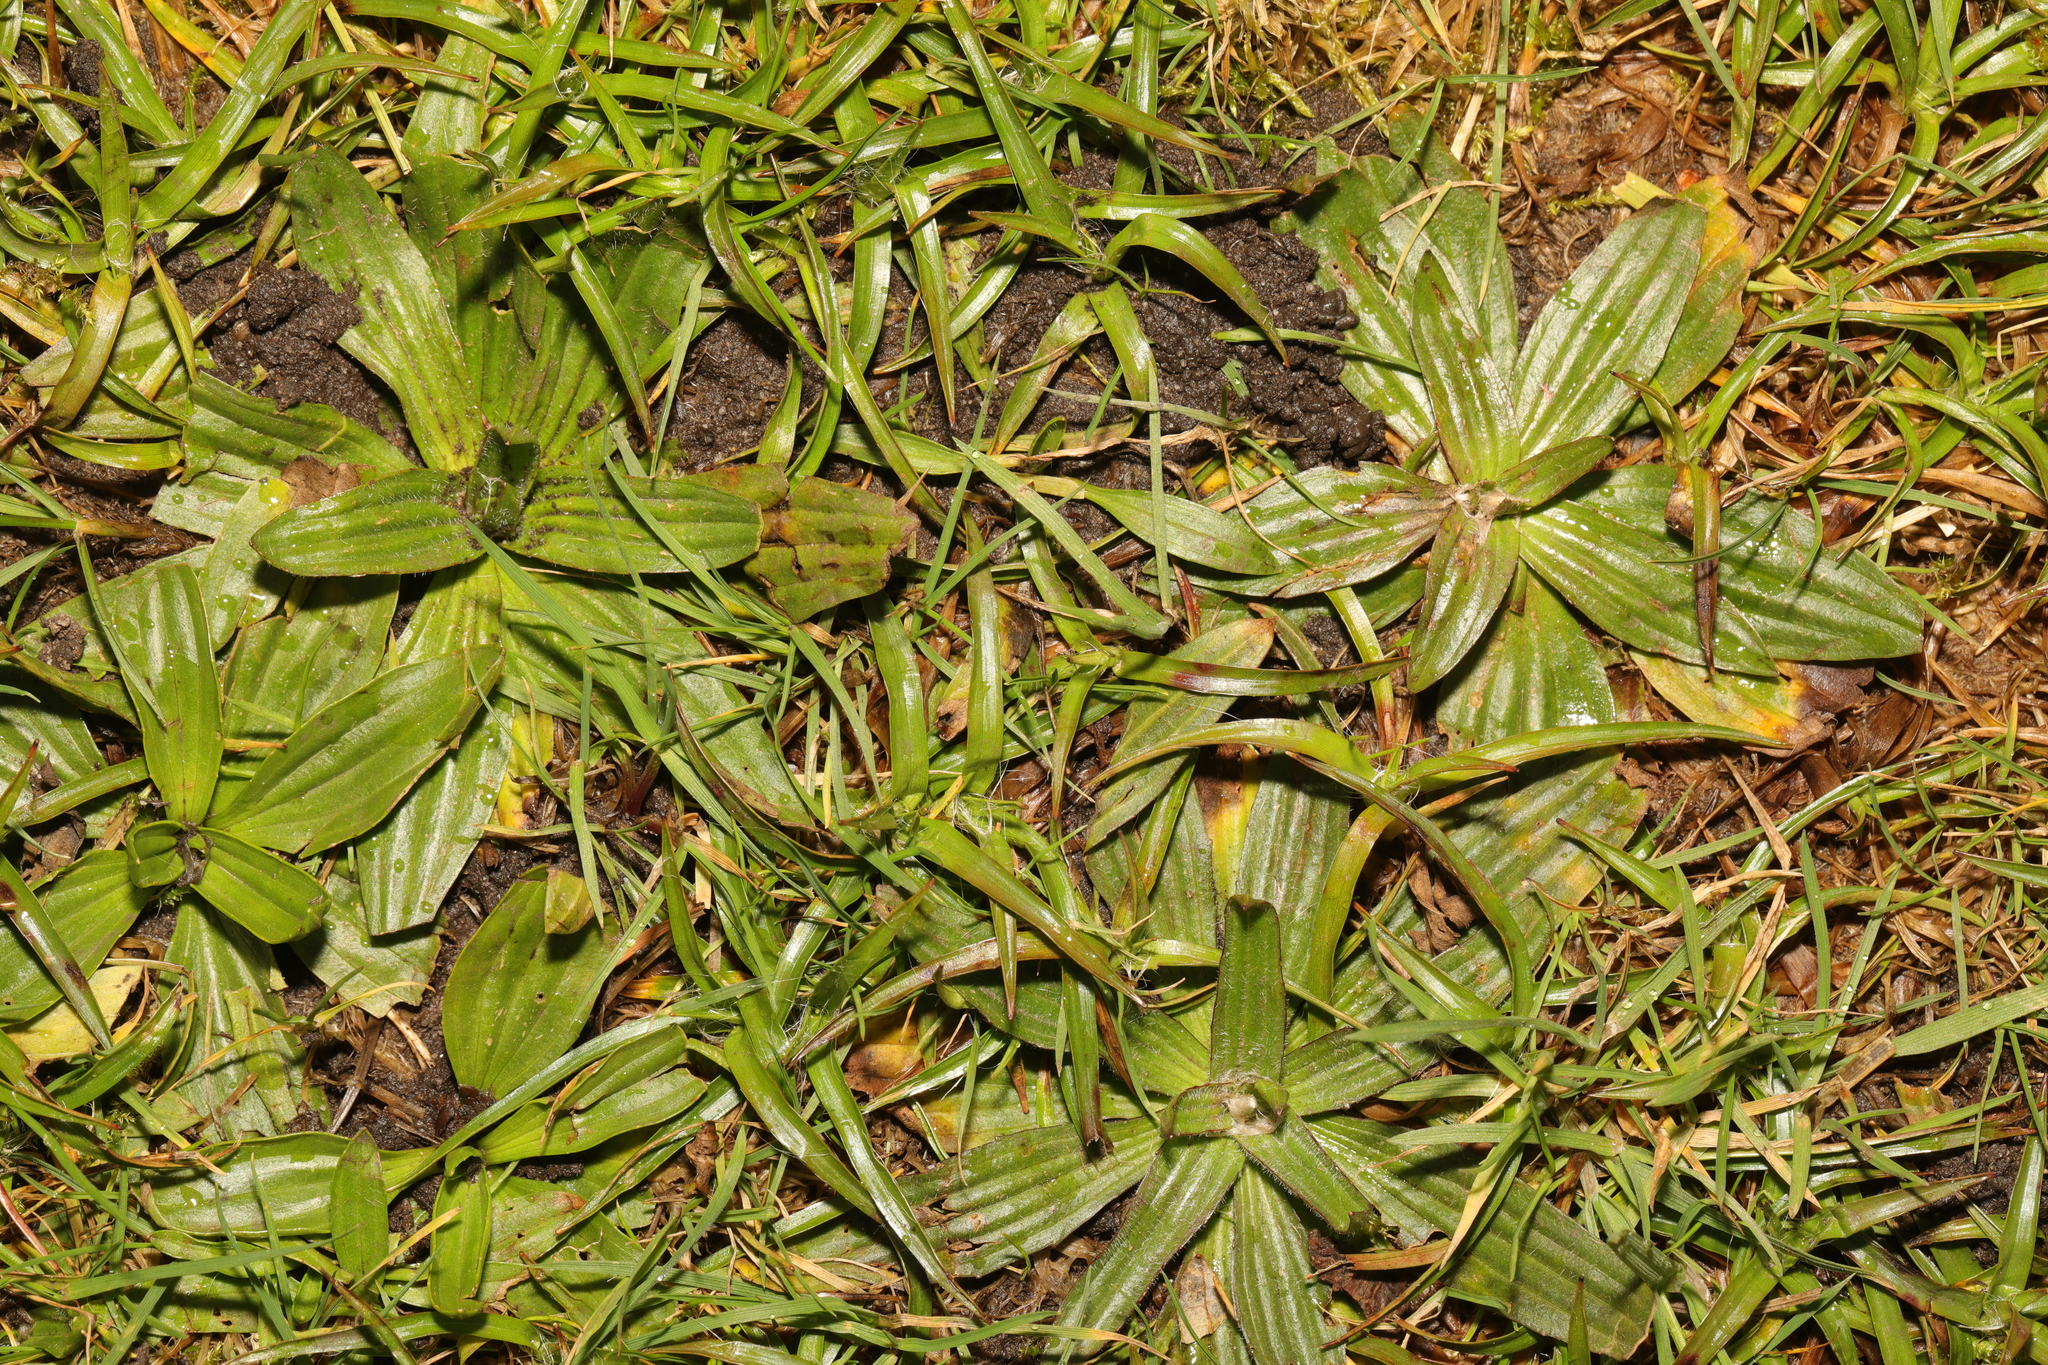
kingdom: Plantae
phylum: Tracheophyta
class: Magnoliopsida
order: Lamiales
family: Plantaginaceae
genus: Plantago
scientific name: Plantago lanceolata
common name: Ribwort plantain
